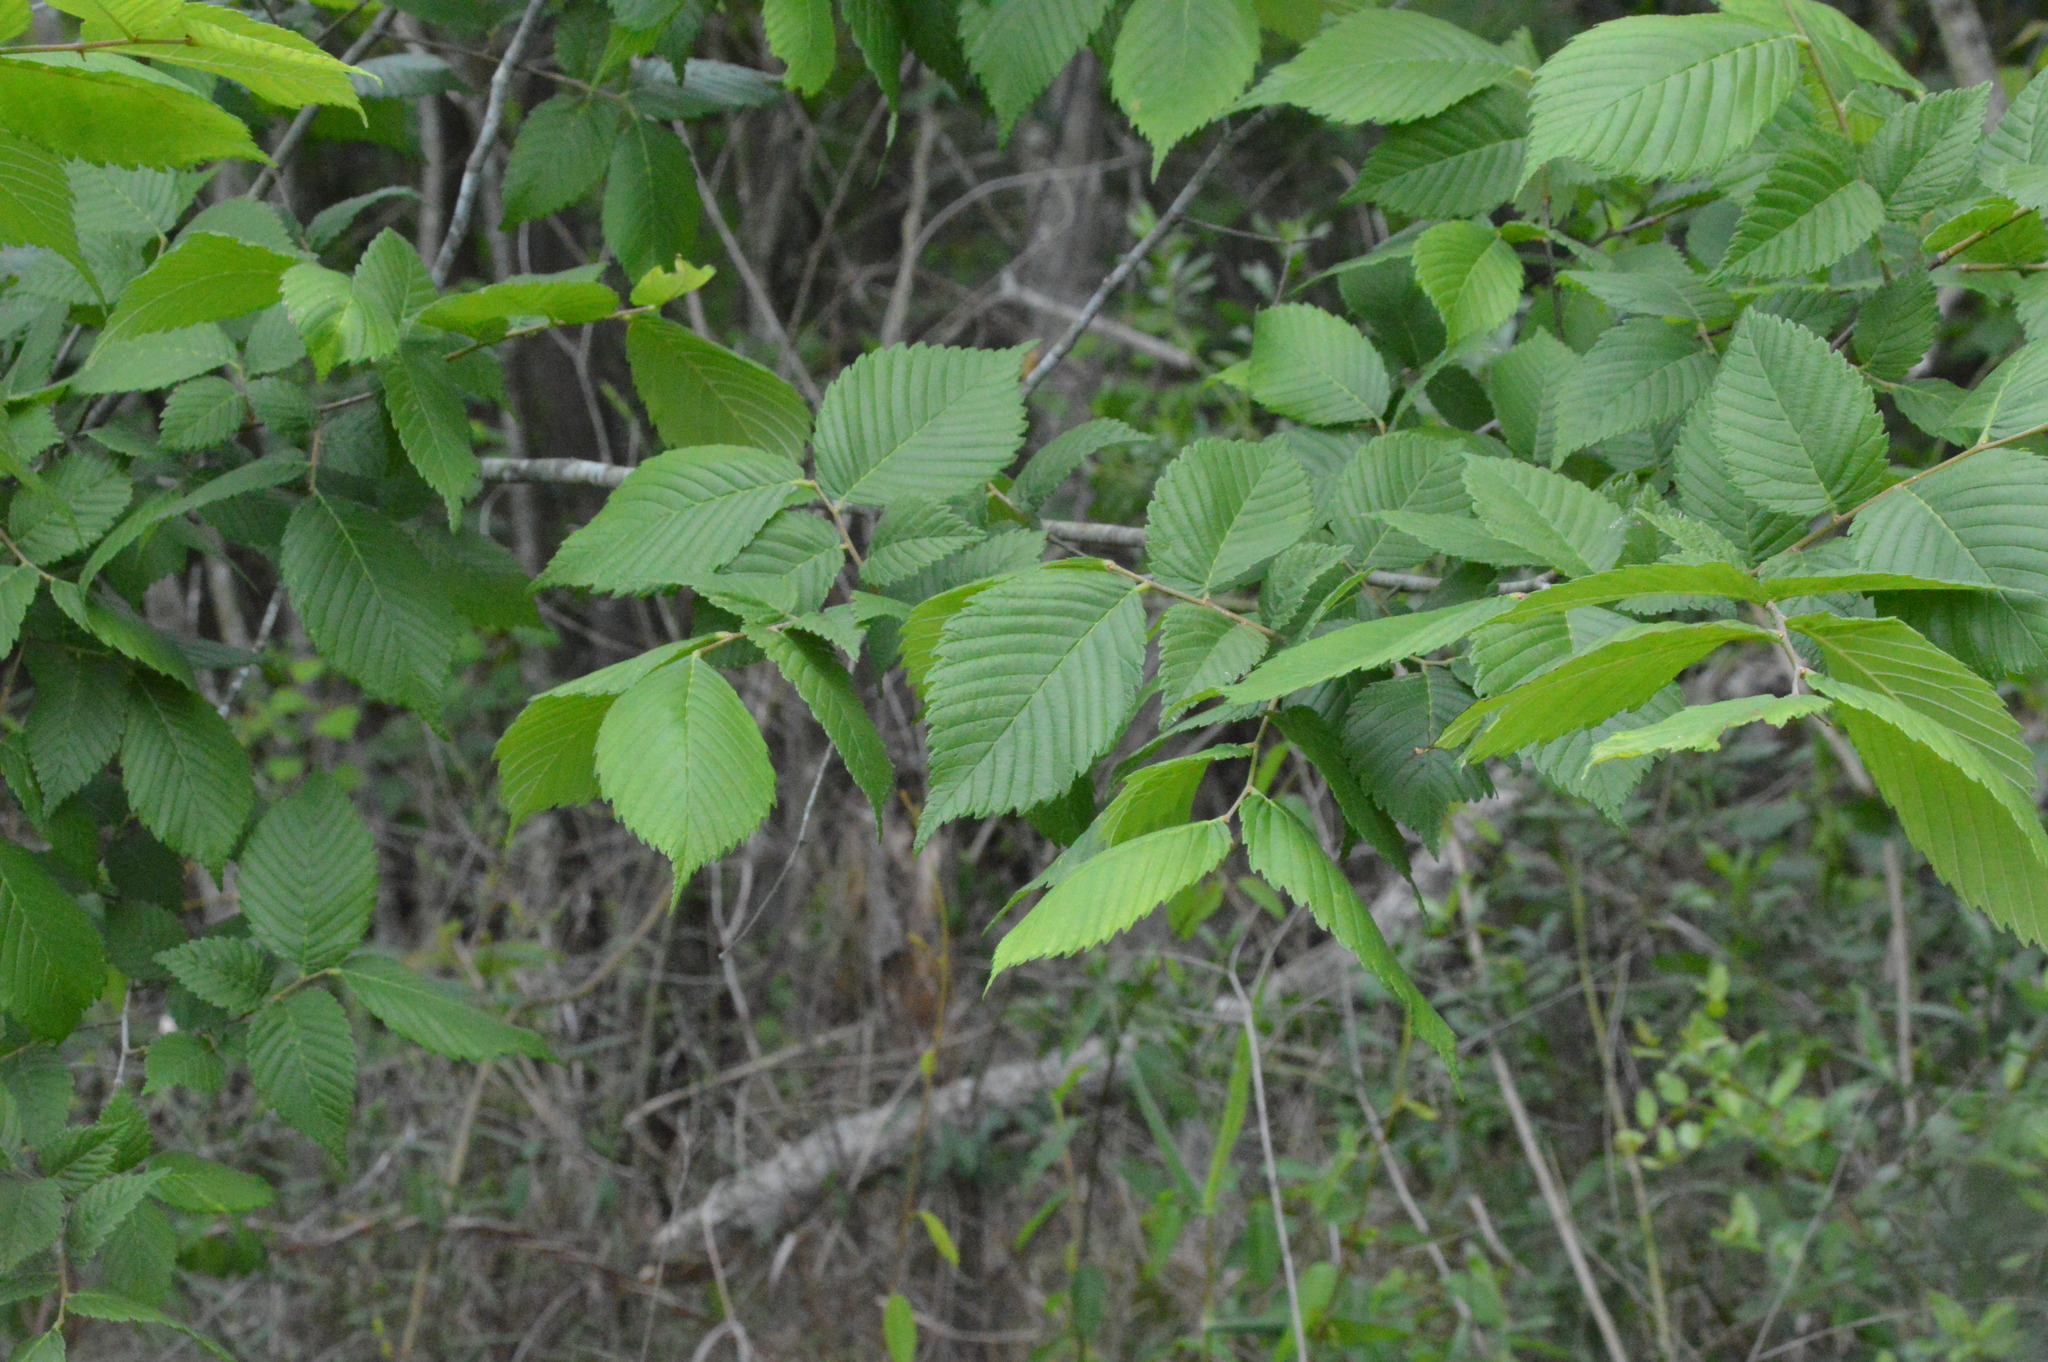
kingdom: Plantae
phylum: Tracheophyta
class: Magnoliopsida
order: Rosales
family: Ulmaceae
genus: Ulmus
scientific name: Ulmus americana
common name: American elm
